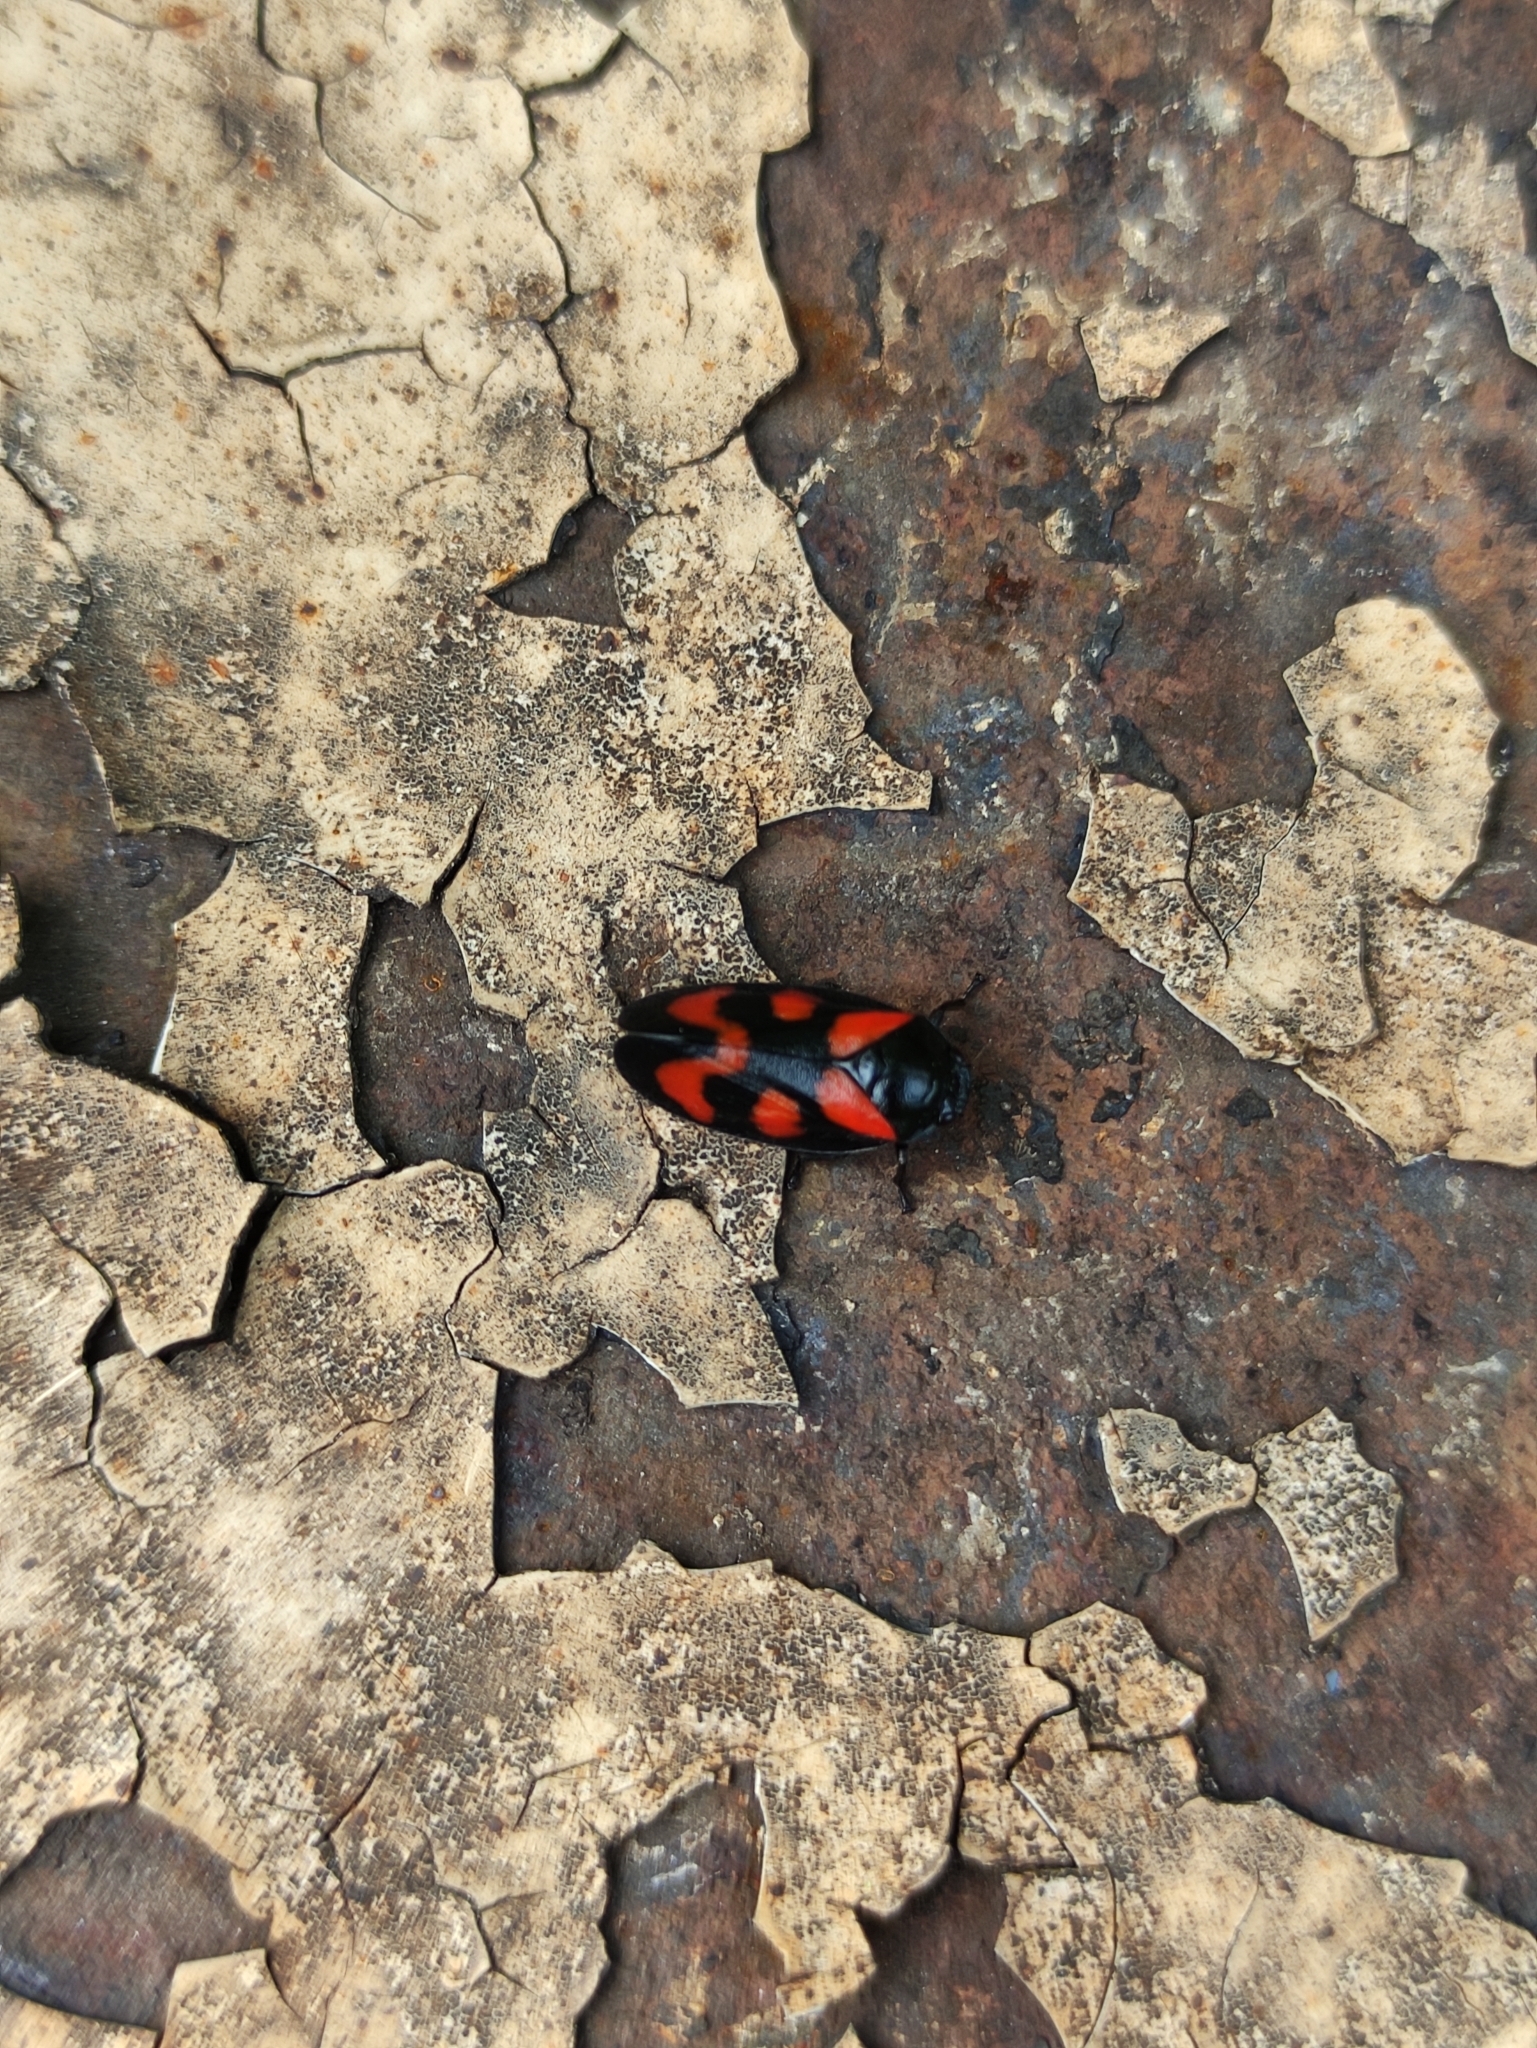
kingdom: Animalia
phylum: Arthropoda
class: Insecta
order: Hemiptera
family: Cercopidae
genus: Cercopis
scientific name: Cercopis vulnerata
